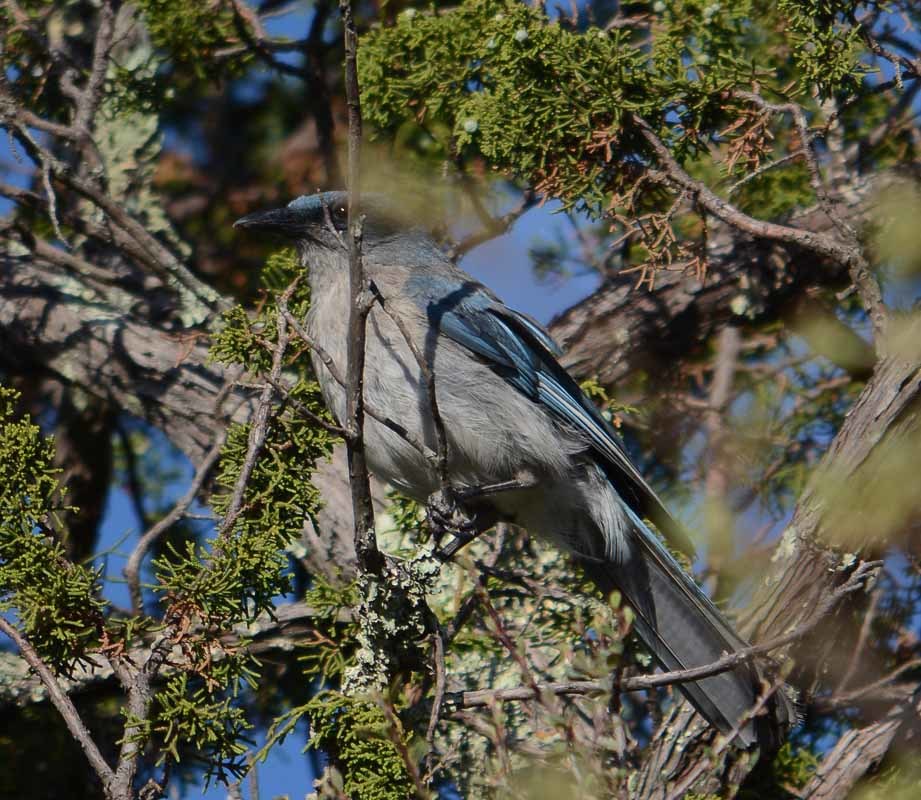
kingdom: Animalia
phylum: Chordata
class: Aves
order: Passeriformes
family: Corvidae
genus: Aphelocoma
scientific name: Aphelocoma wollweberi
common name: Mexican jay
